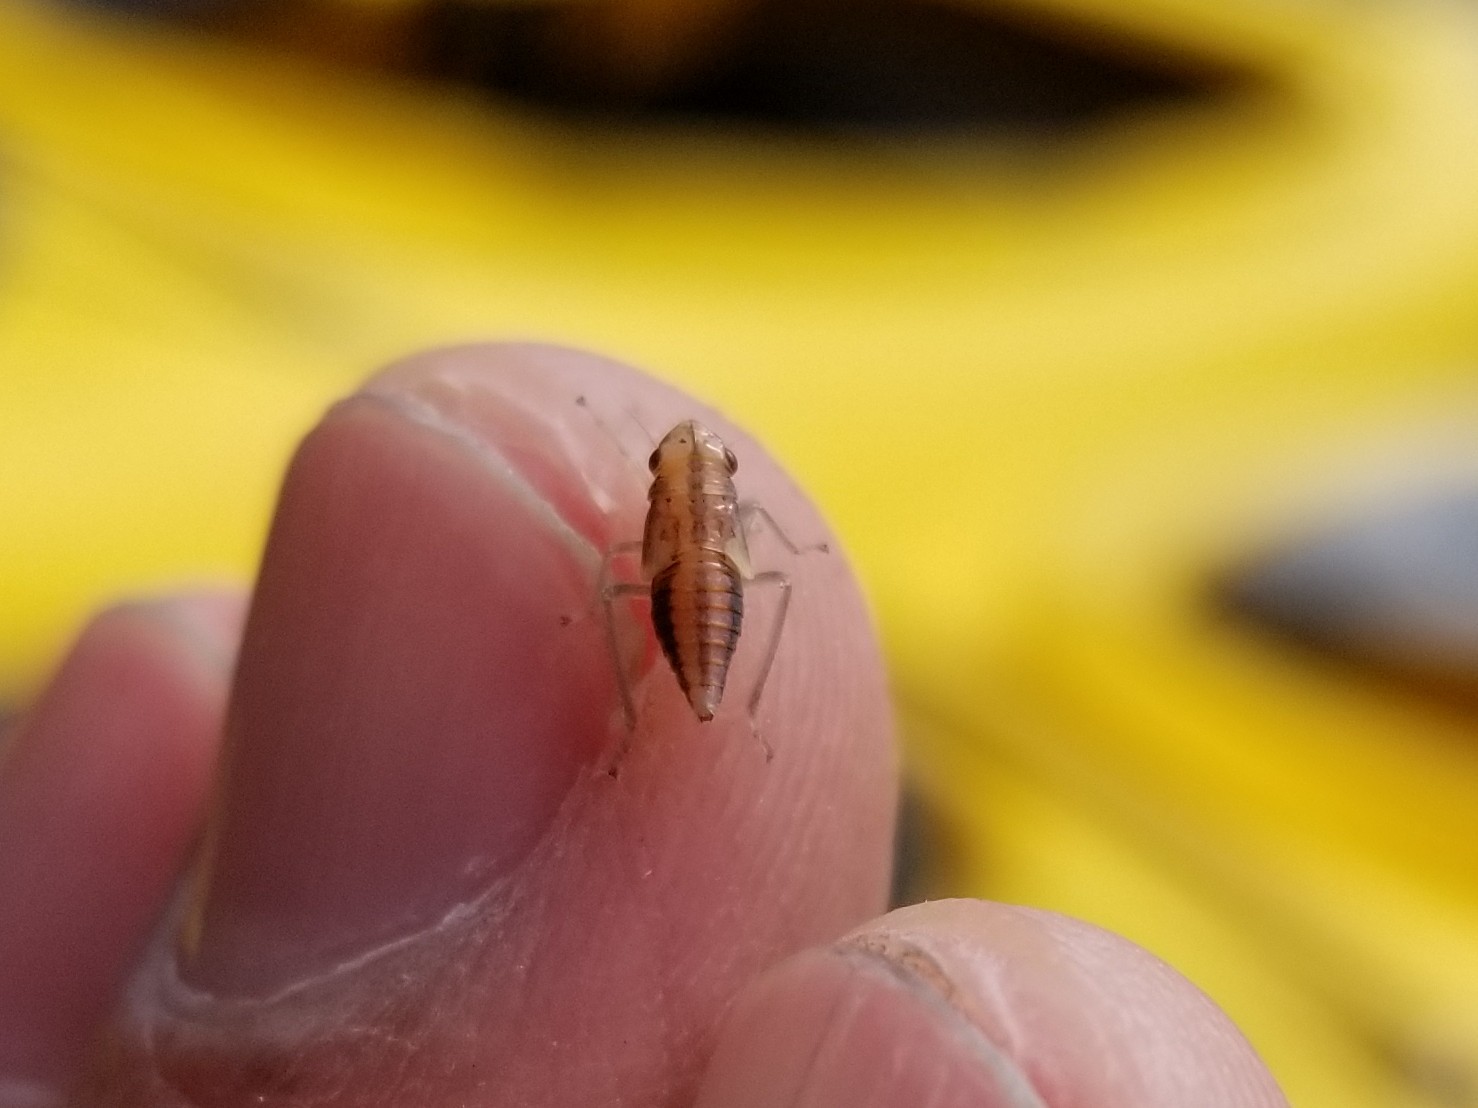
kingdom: Animalia
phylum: Arthropoda
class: Insecta
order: Hemiptera
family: Cicadellidae
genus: Evacanthus
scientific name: Evacanthus grandipes
